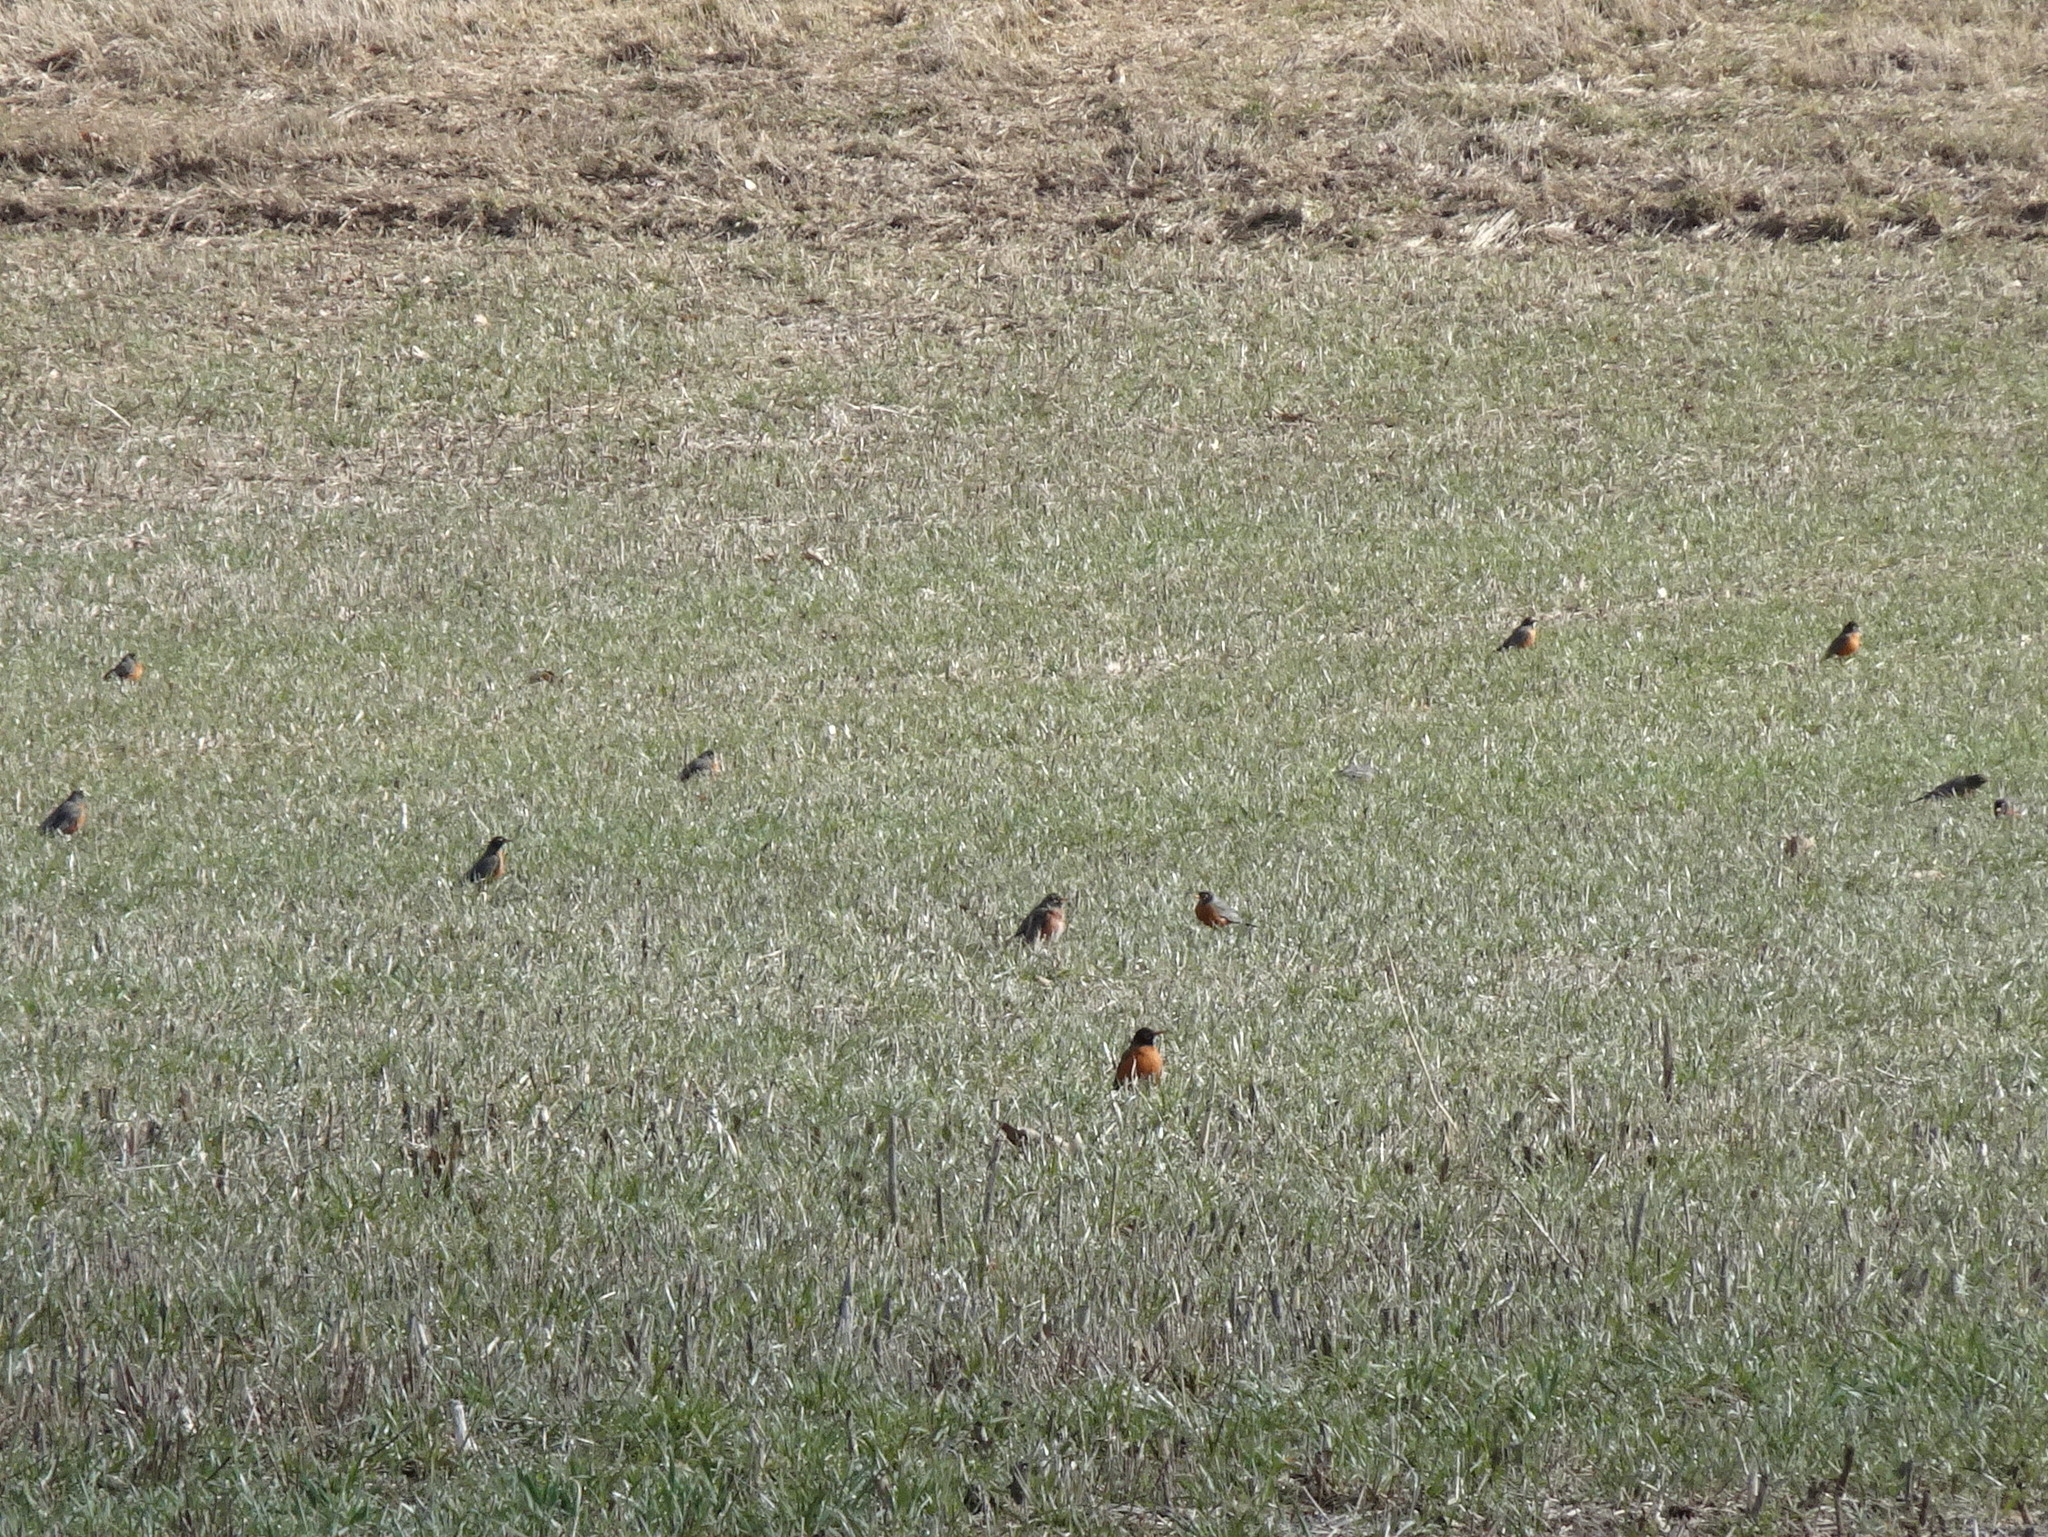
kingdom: Animalia
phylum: Chordata
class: Aves
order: Passeriformes
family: Turdidae
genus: Turdus
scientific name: Turdus migratorius
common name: American robin
